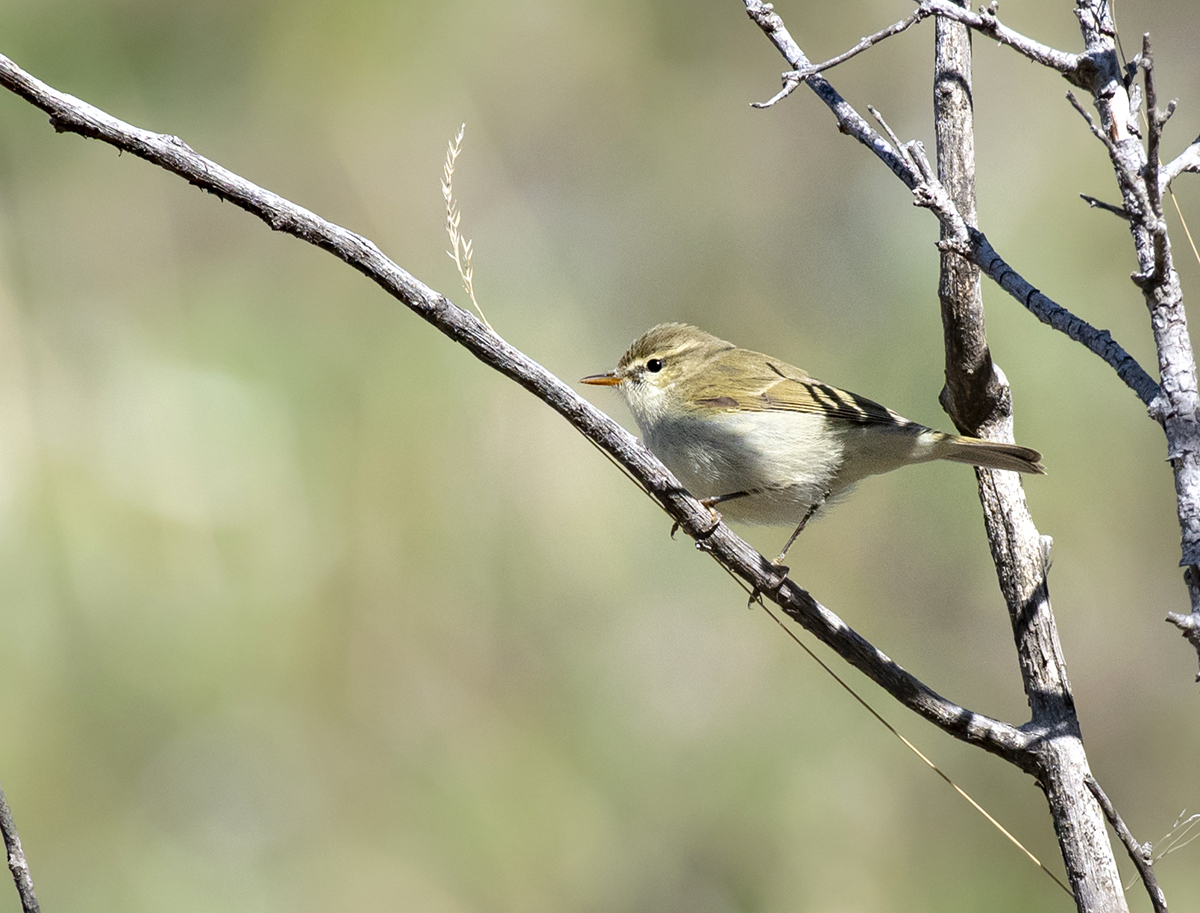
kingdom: Animalia
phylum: Chordata
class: Aves
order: Passeriformes
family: Phylloscopidae
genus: Phylloscopus
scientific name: Phylloscopus trochiloides
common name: Greenish warbler
